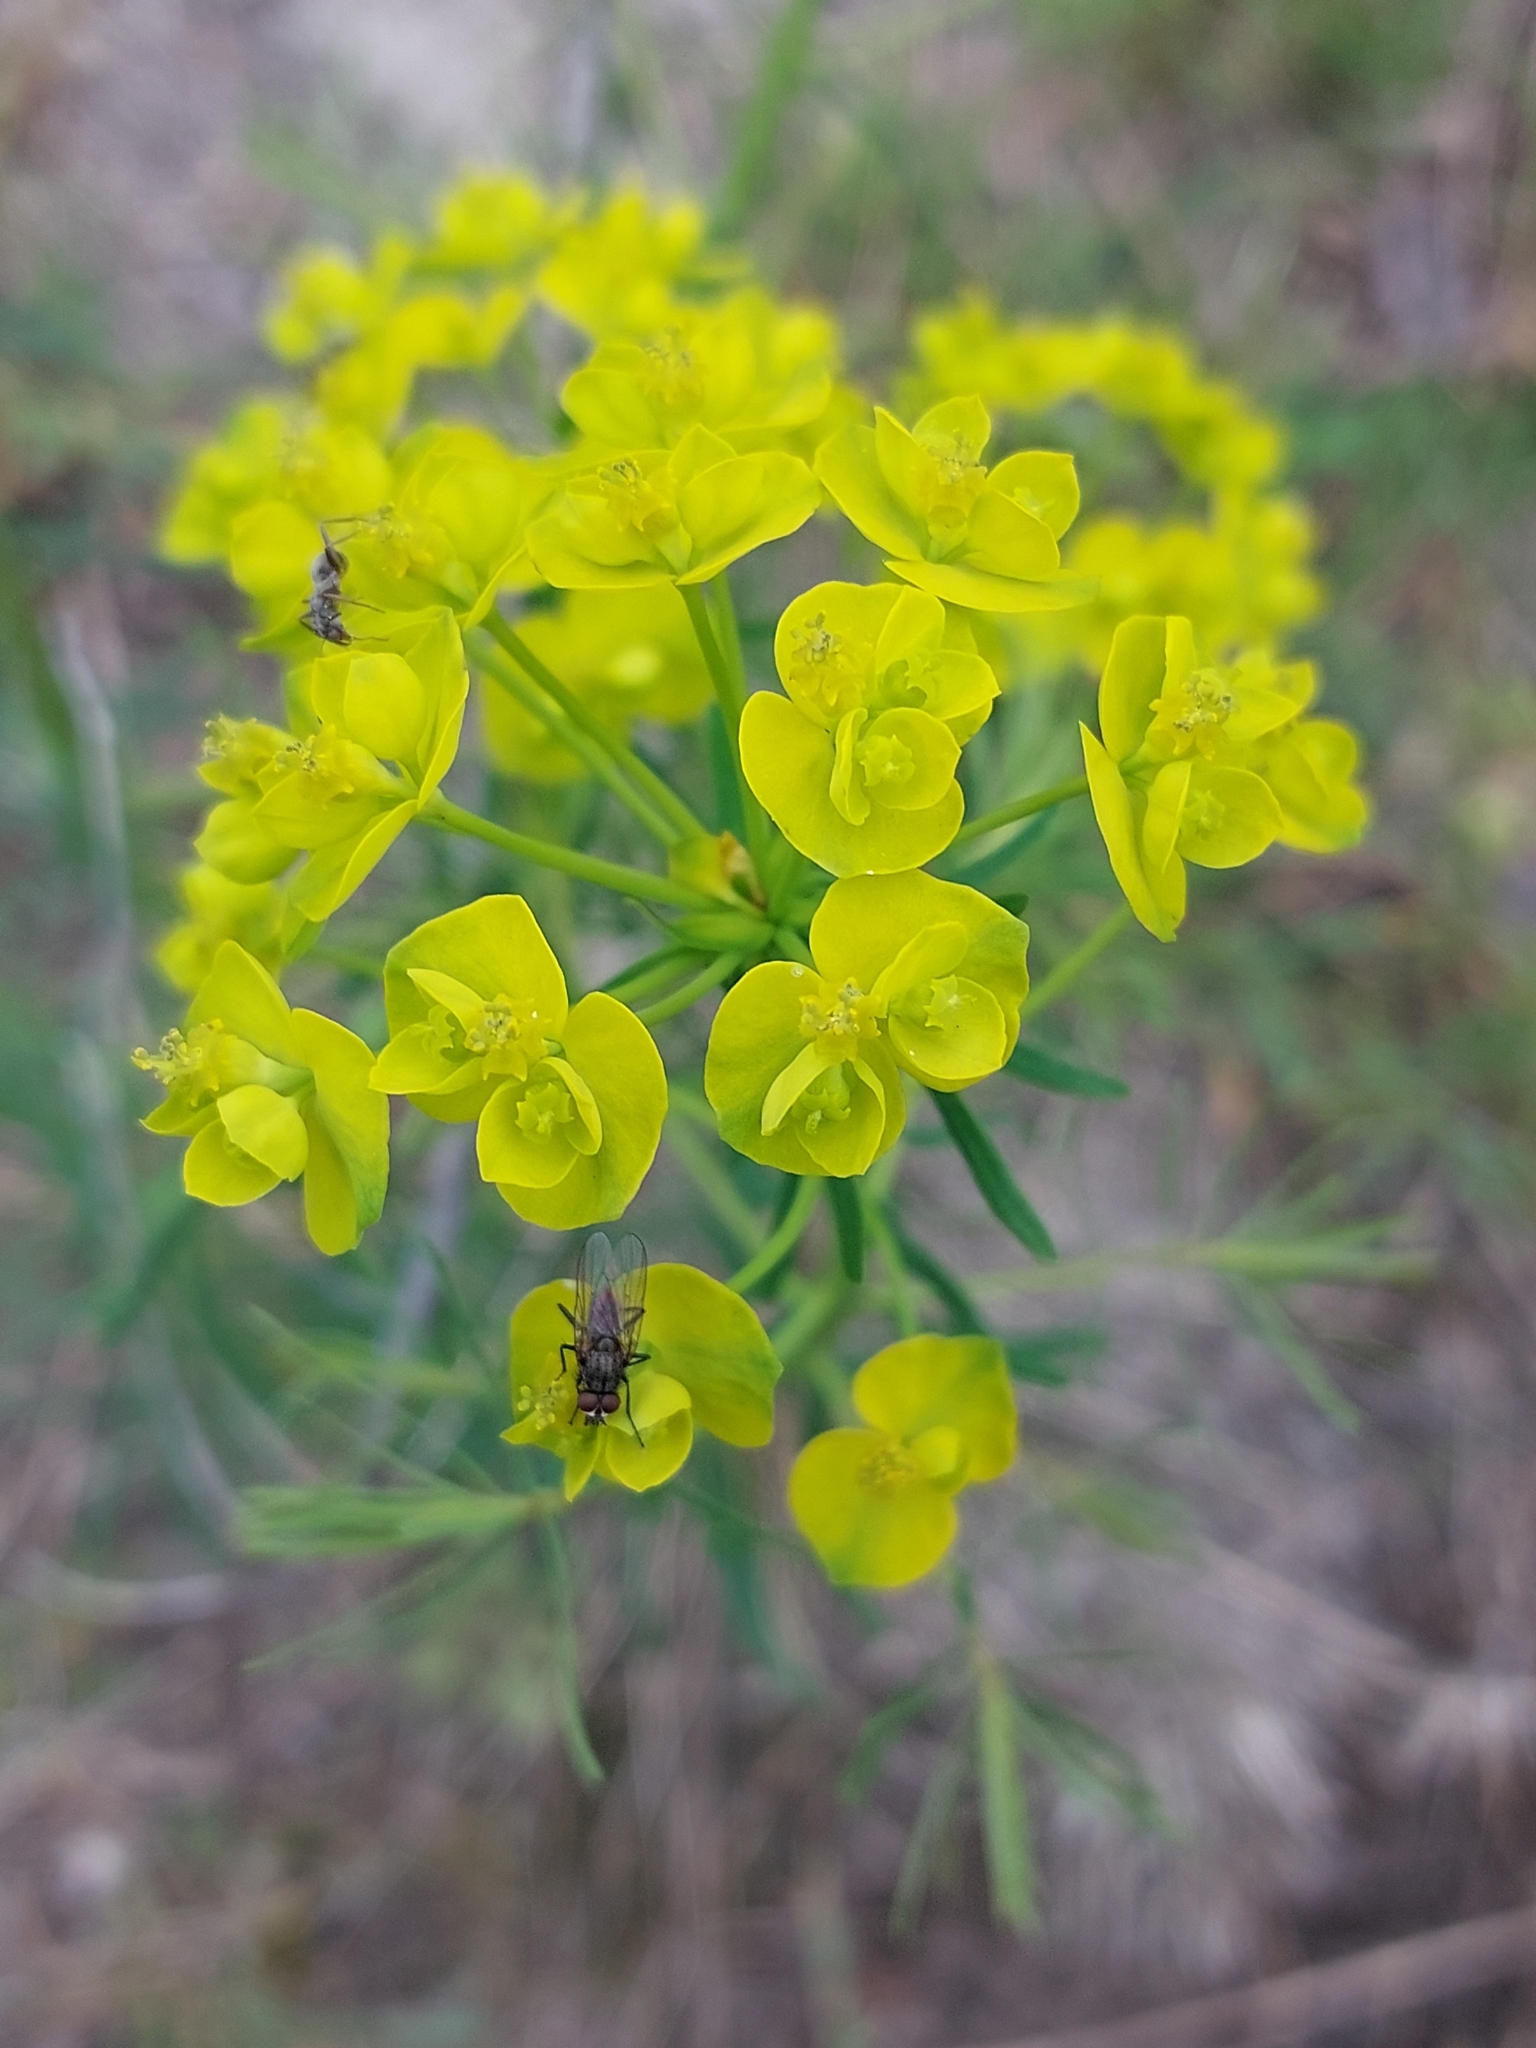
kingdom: Plantae
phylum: Tracheophyta
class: Magnoliopsida
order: Malpighiales
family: Euphorbiaceae
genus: Euphorbia
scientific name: Euphorbia cyparissias
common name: Cypress spurge
